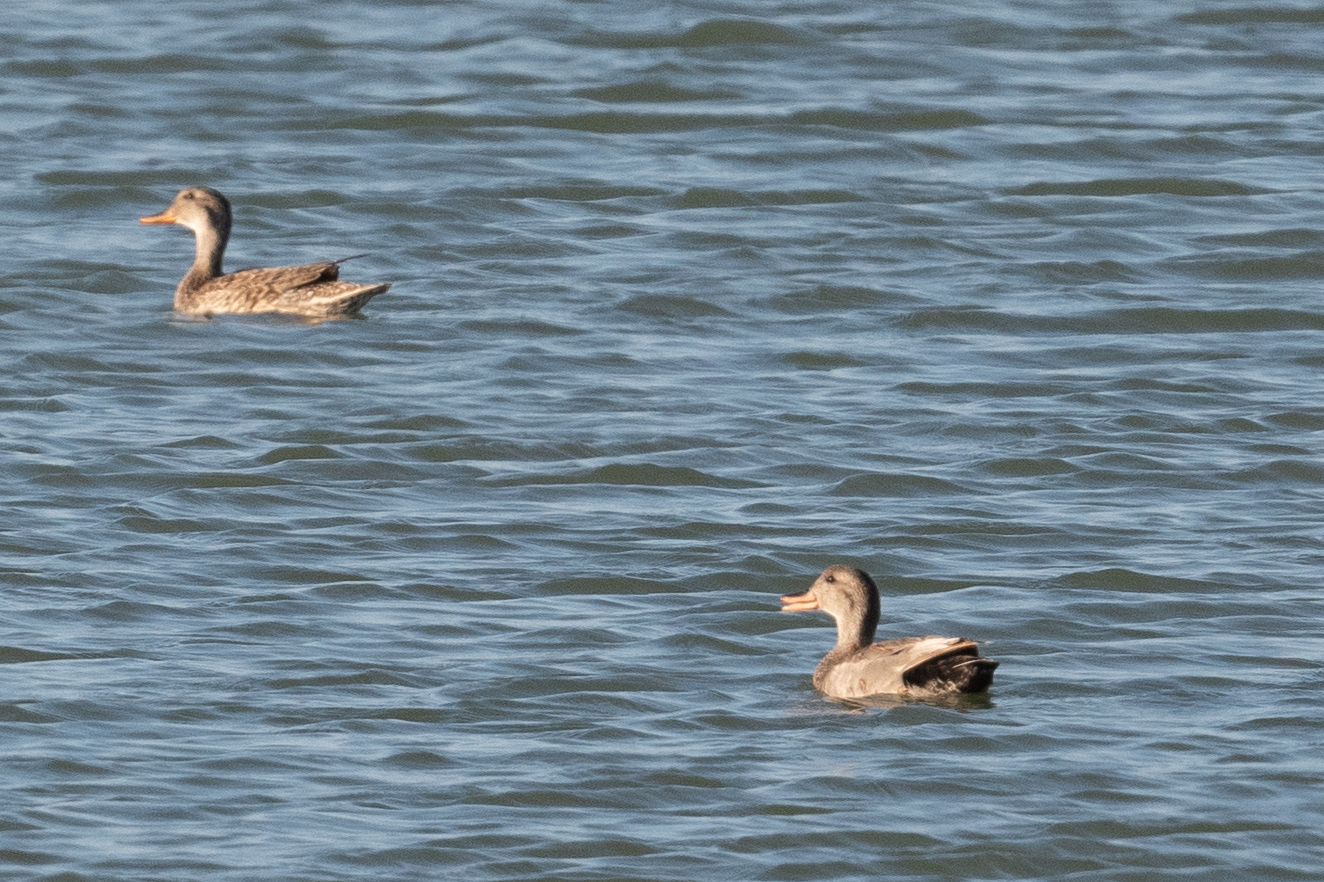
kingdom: Animalia
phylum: Chordata
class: Aves
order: Anseriformes
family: Anatidae
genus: Mareca
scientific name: Mareca strepera
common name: Gadwall
